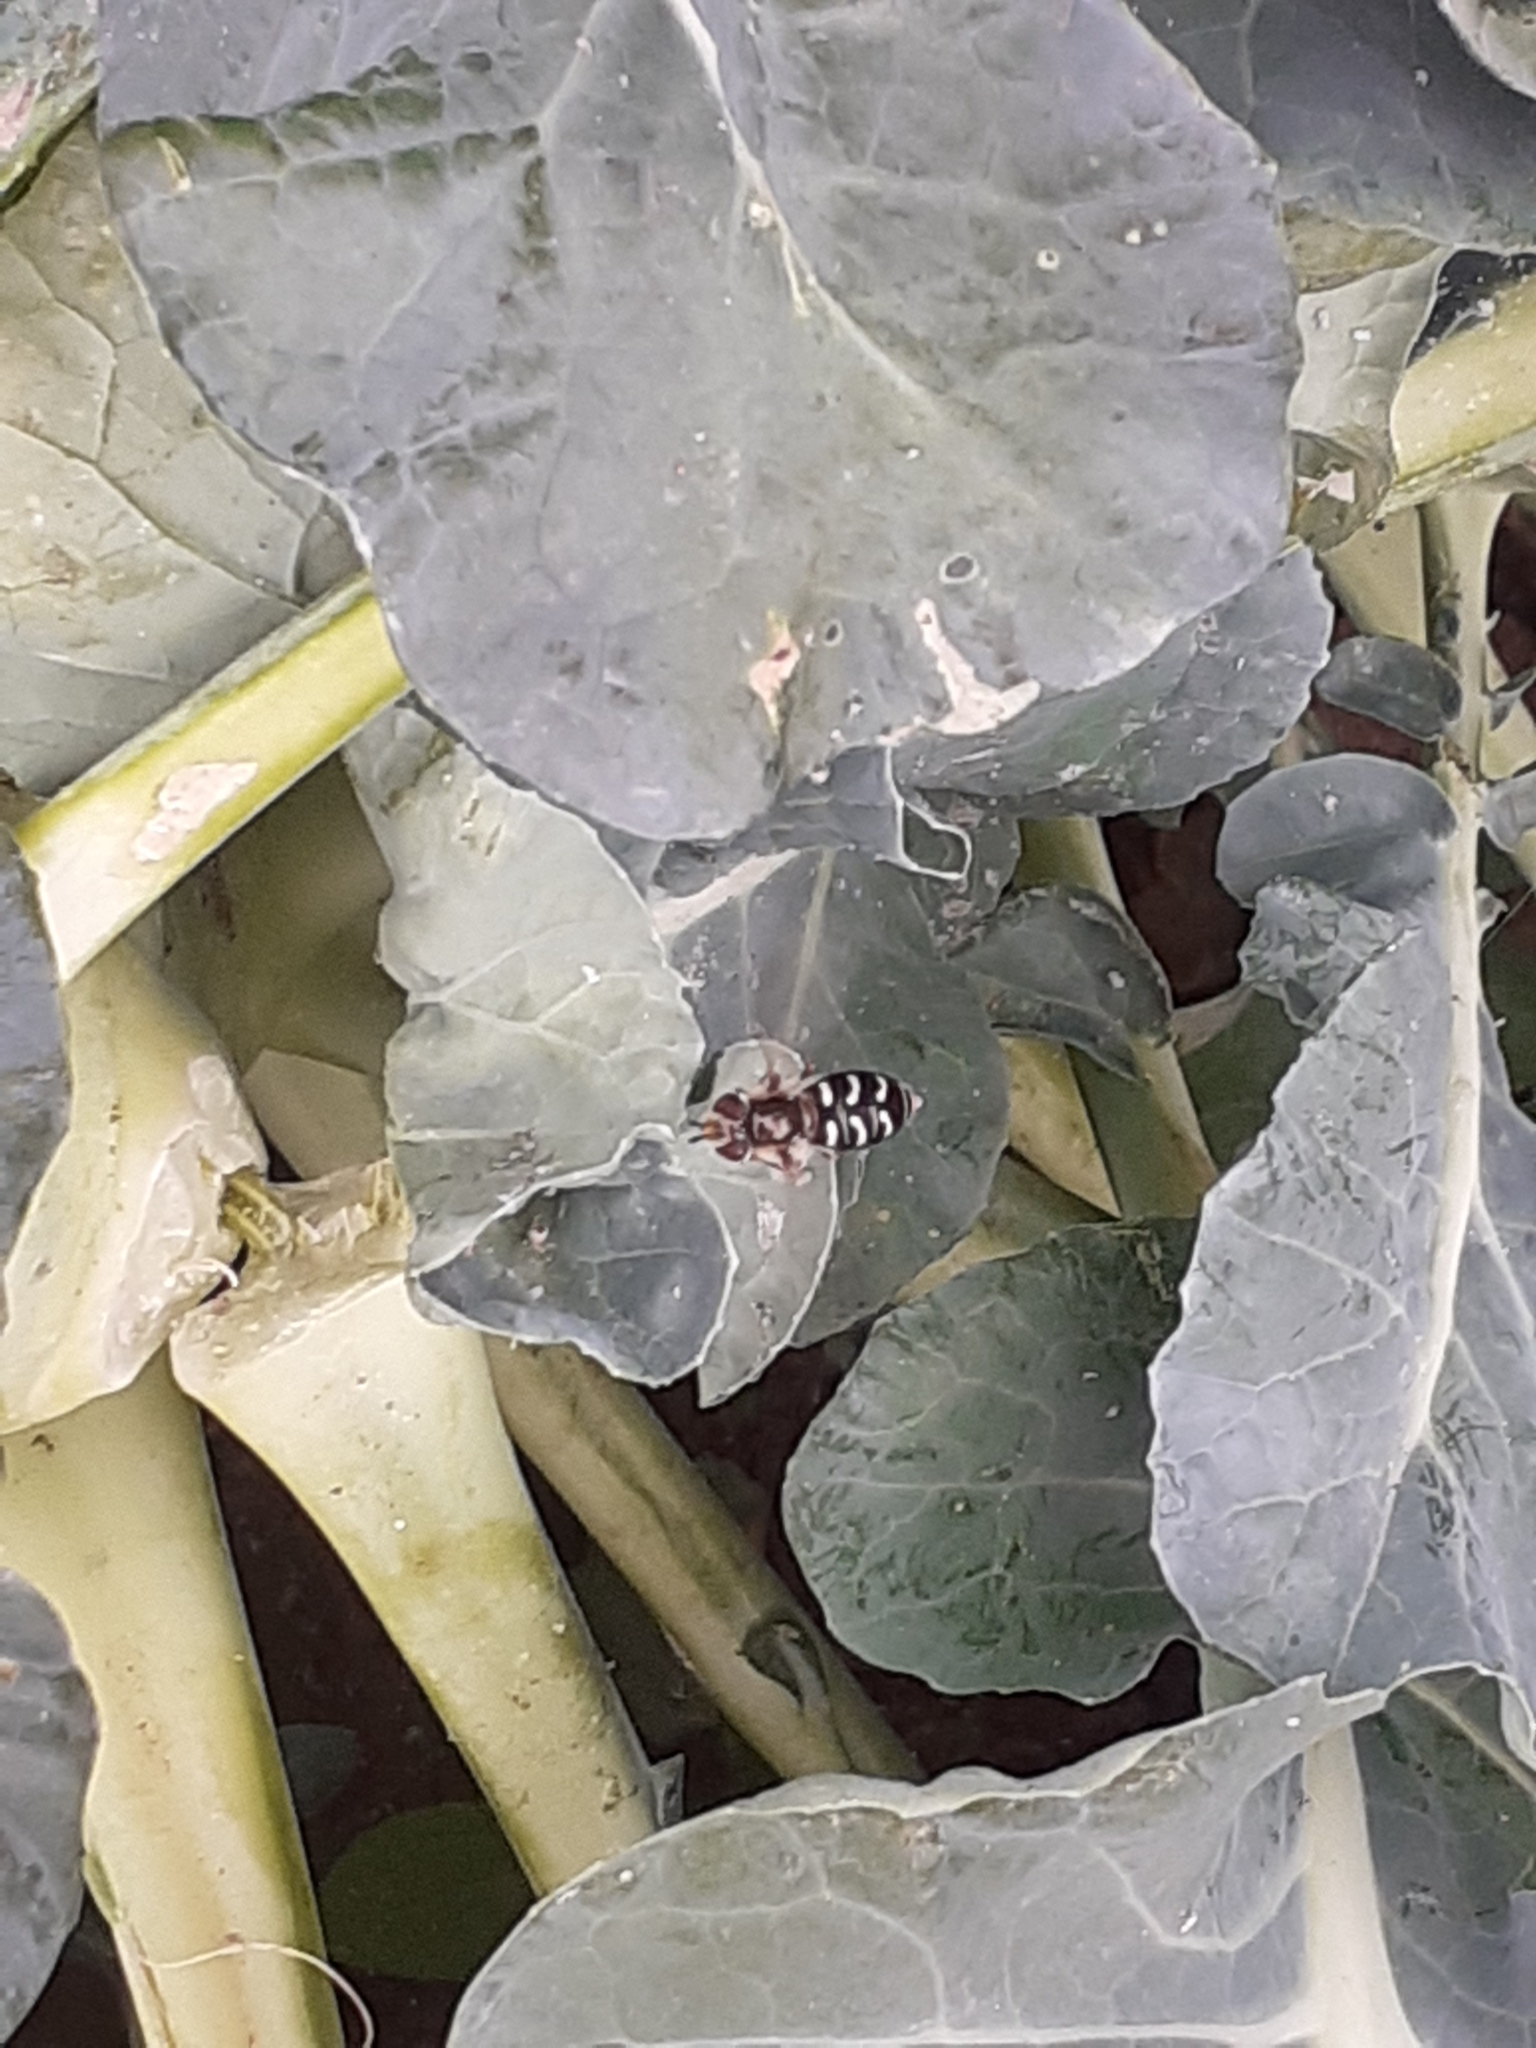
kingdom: Animalia
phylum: Arthropoda
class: Insecta
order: Diptera
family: Syrphidae
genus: Scaeva
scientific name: Scaeva pyrastri
